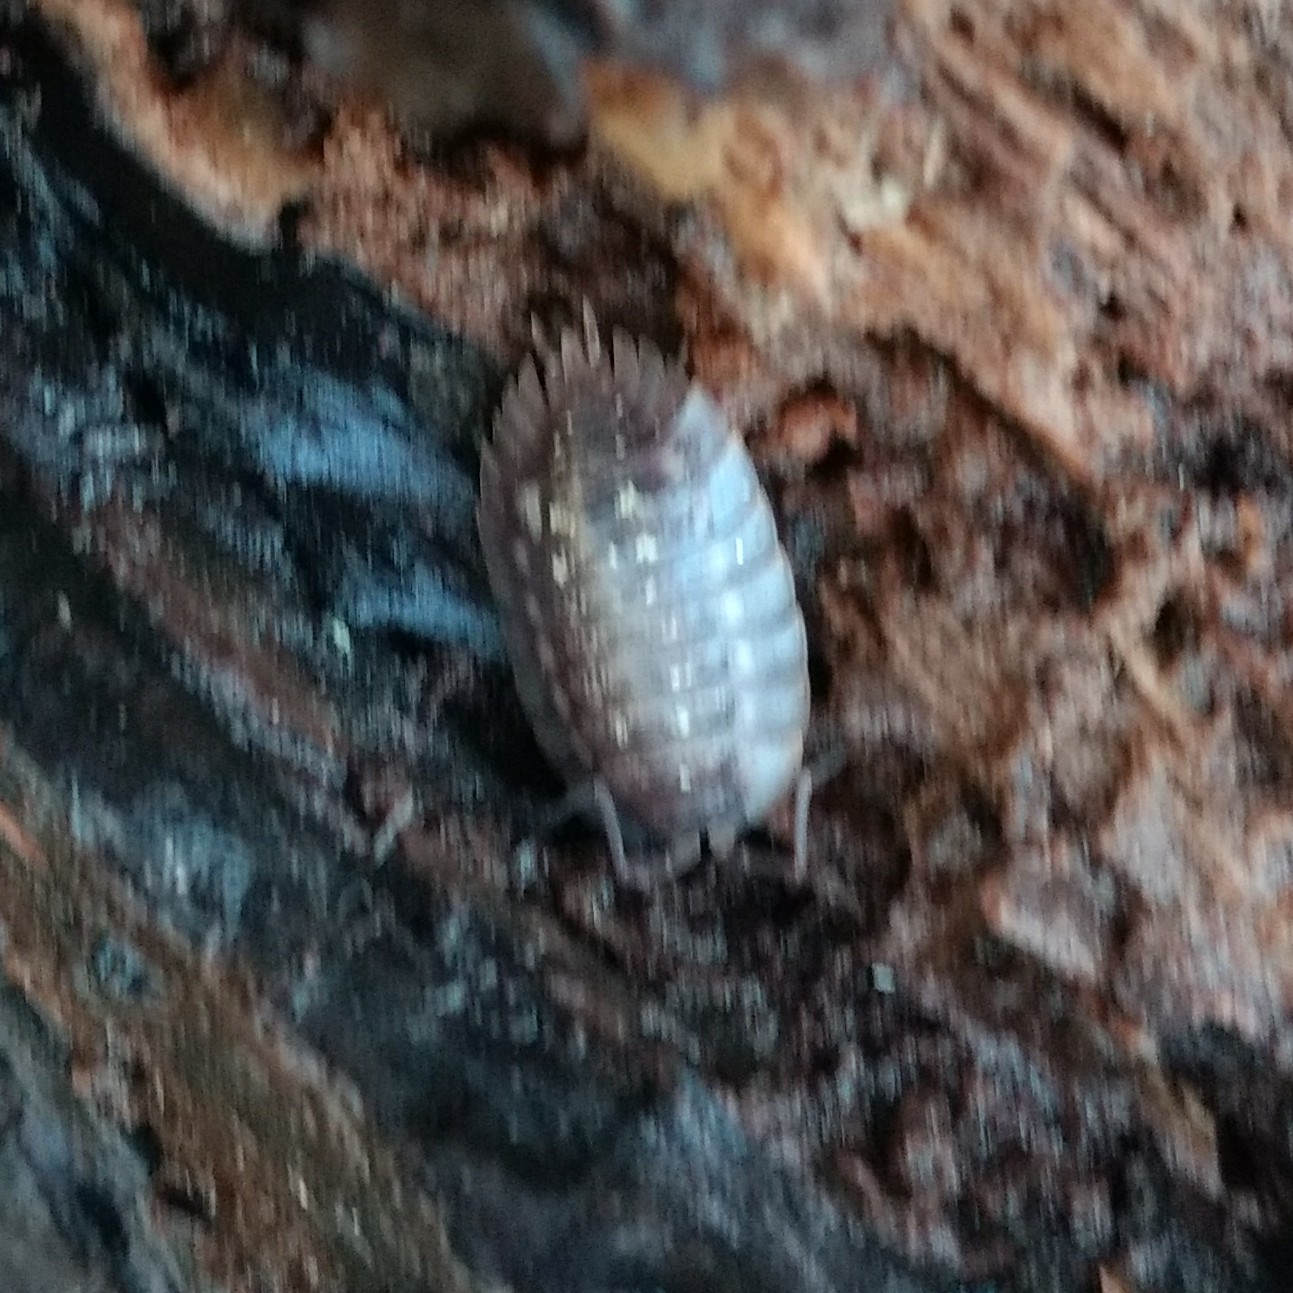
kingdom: Animalia
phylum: Arthropoda
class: Malacostraca
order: Isopoda
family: Oniscidae
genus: Oniscus
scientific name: Oniscus asellus
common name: Common shiny woodlouse
